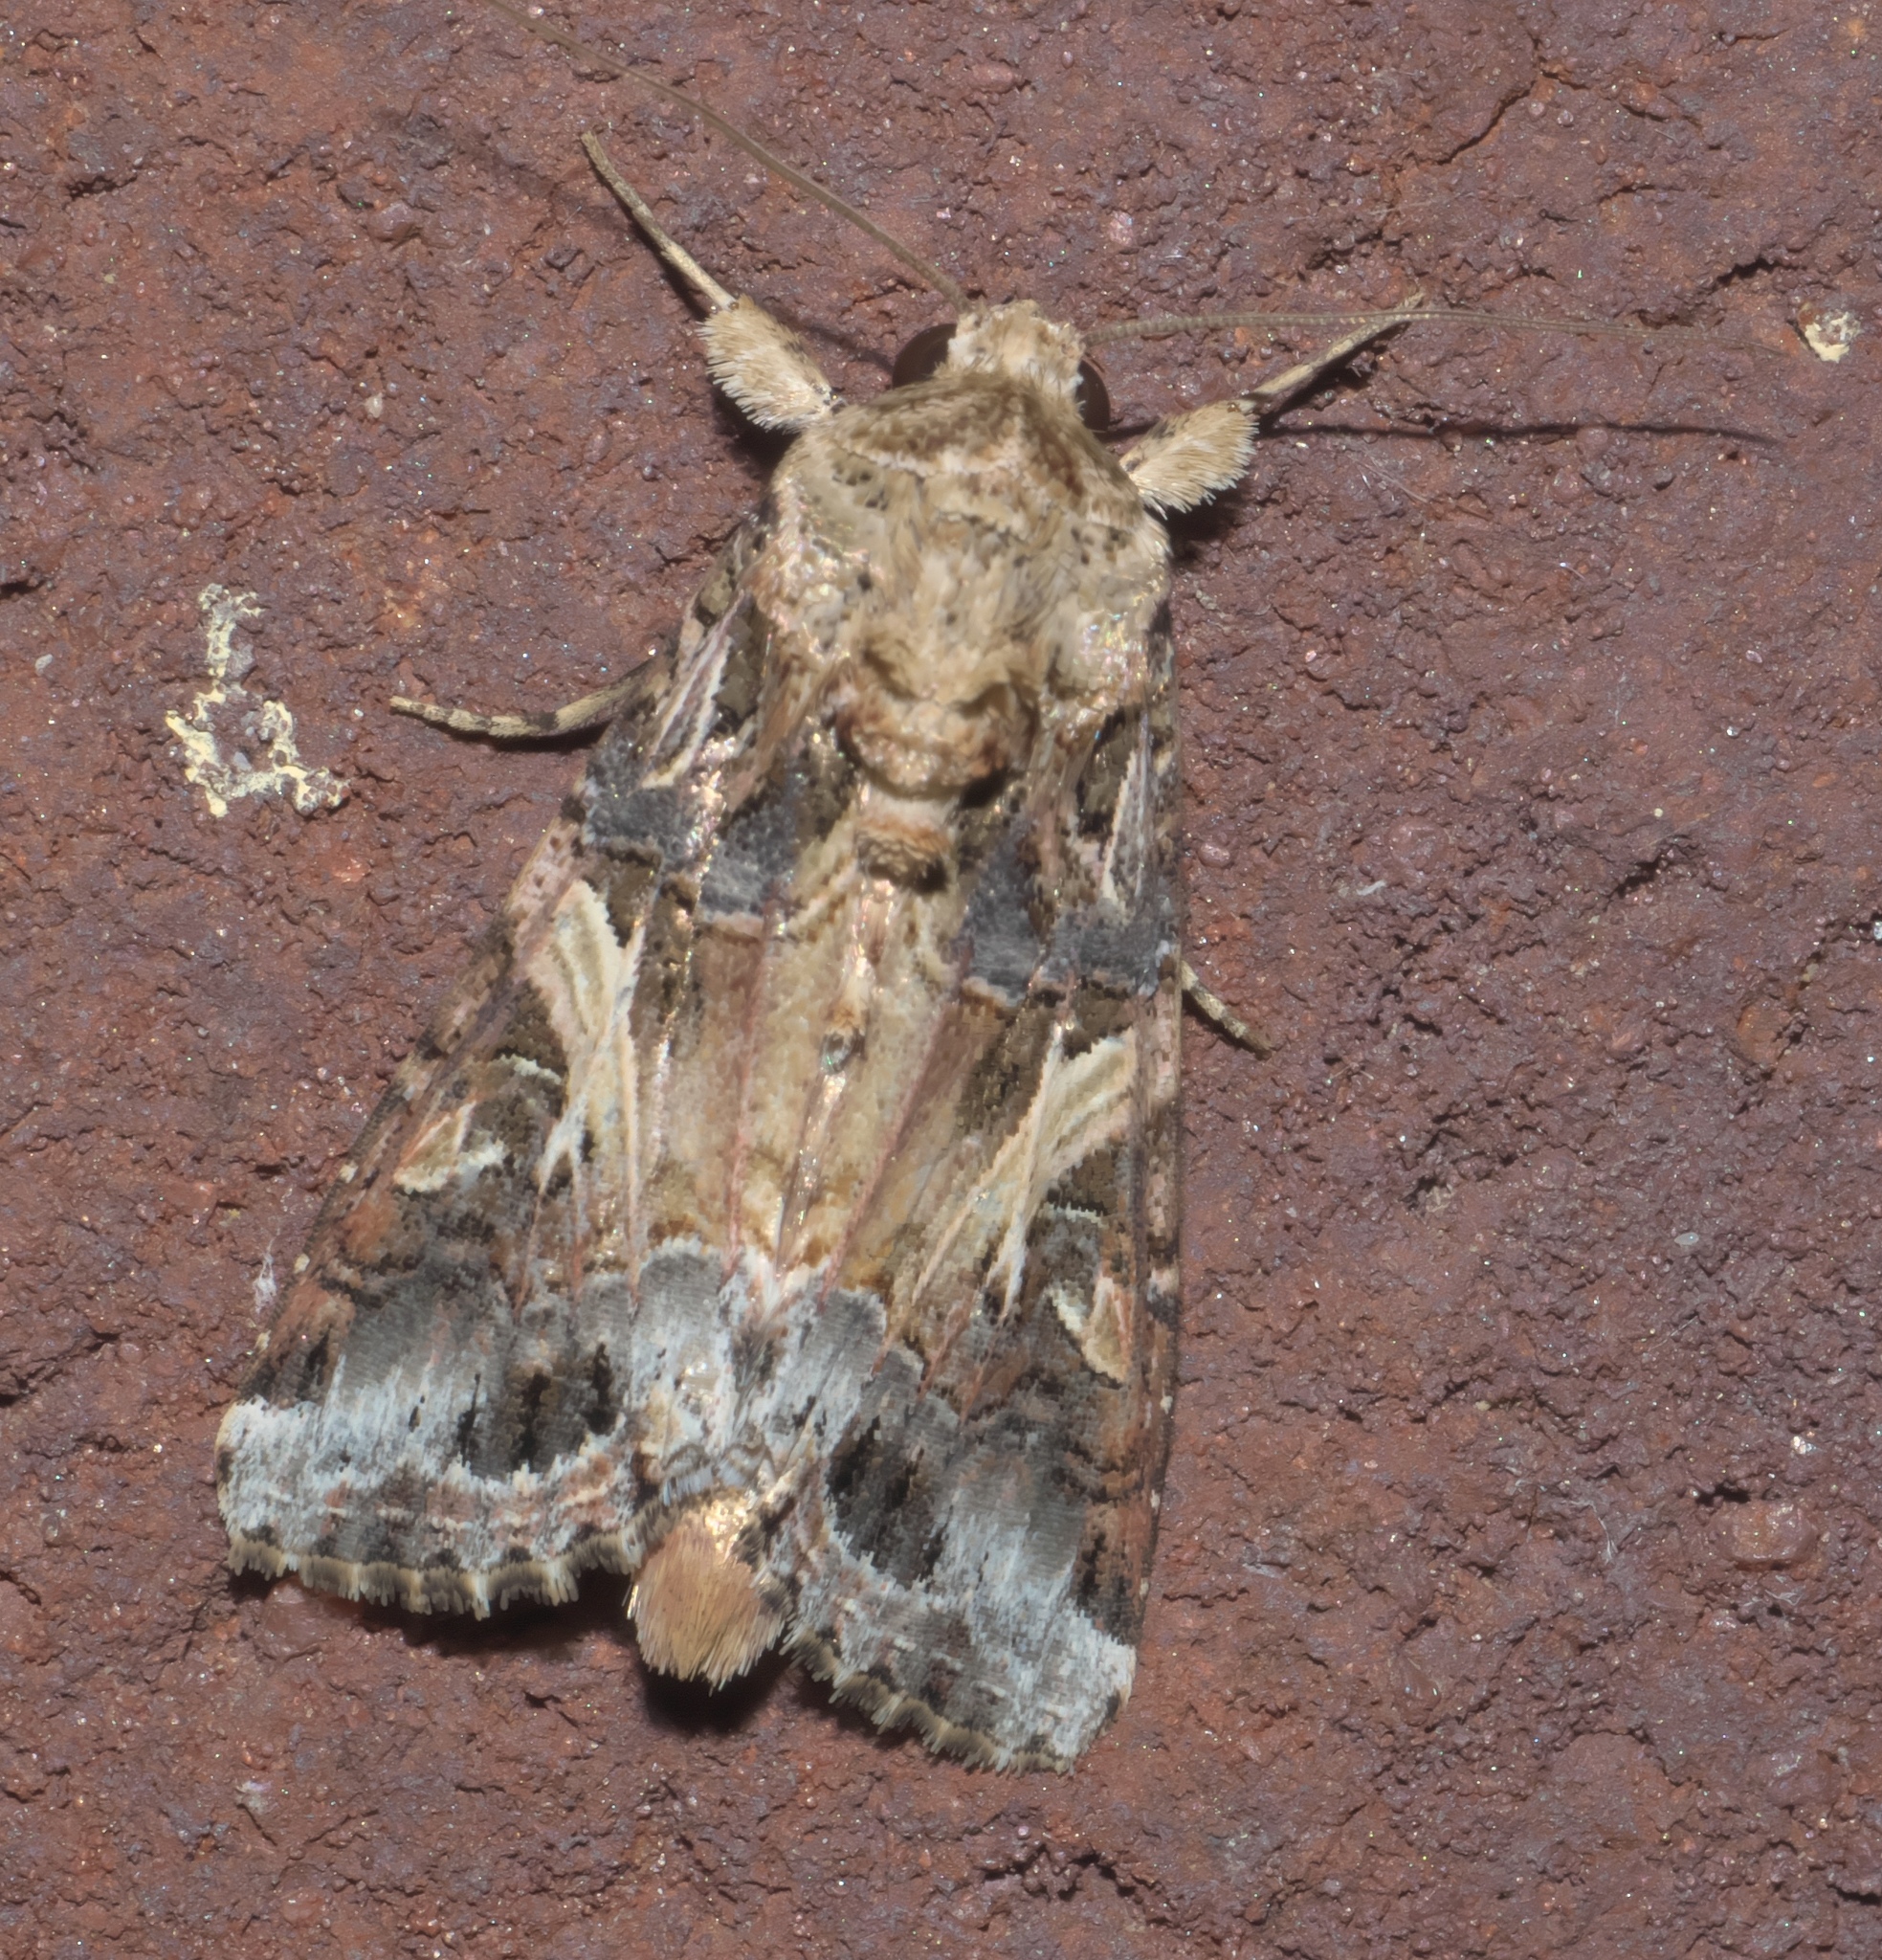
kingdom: Animalia
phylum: Arthropoda
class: Insecta
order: Lepidoptera
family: Noctuidae
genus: Spodoptera
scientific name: Spodoptera ornithogalli
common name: Yellow-striped armyworm
